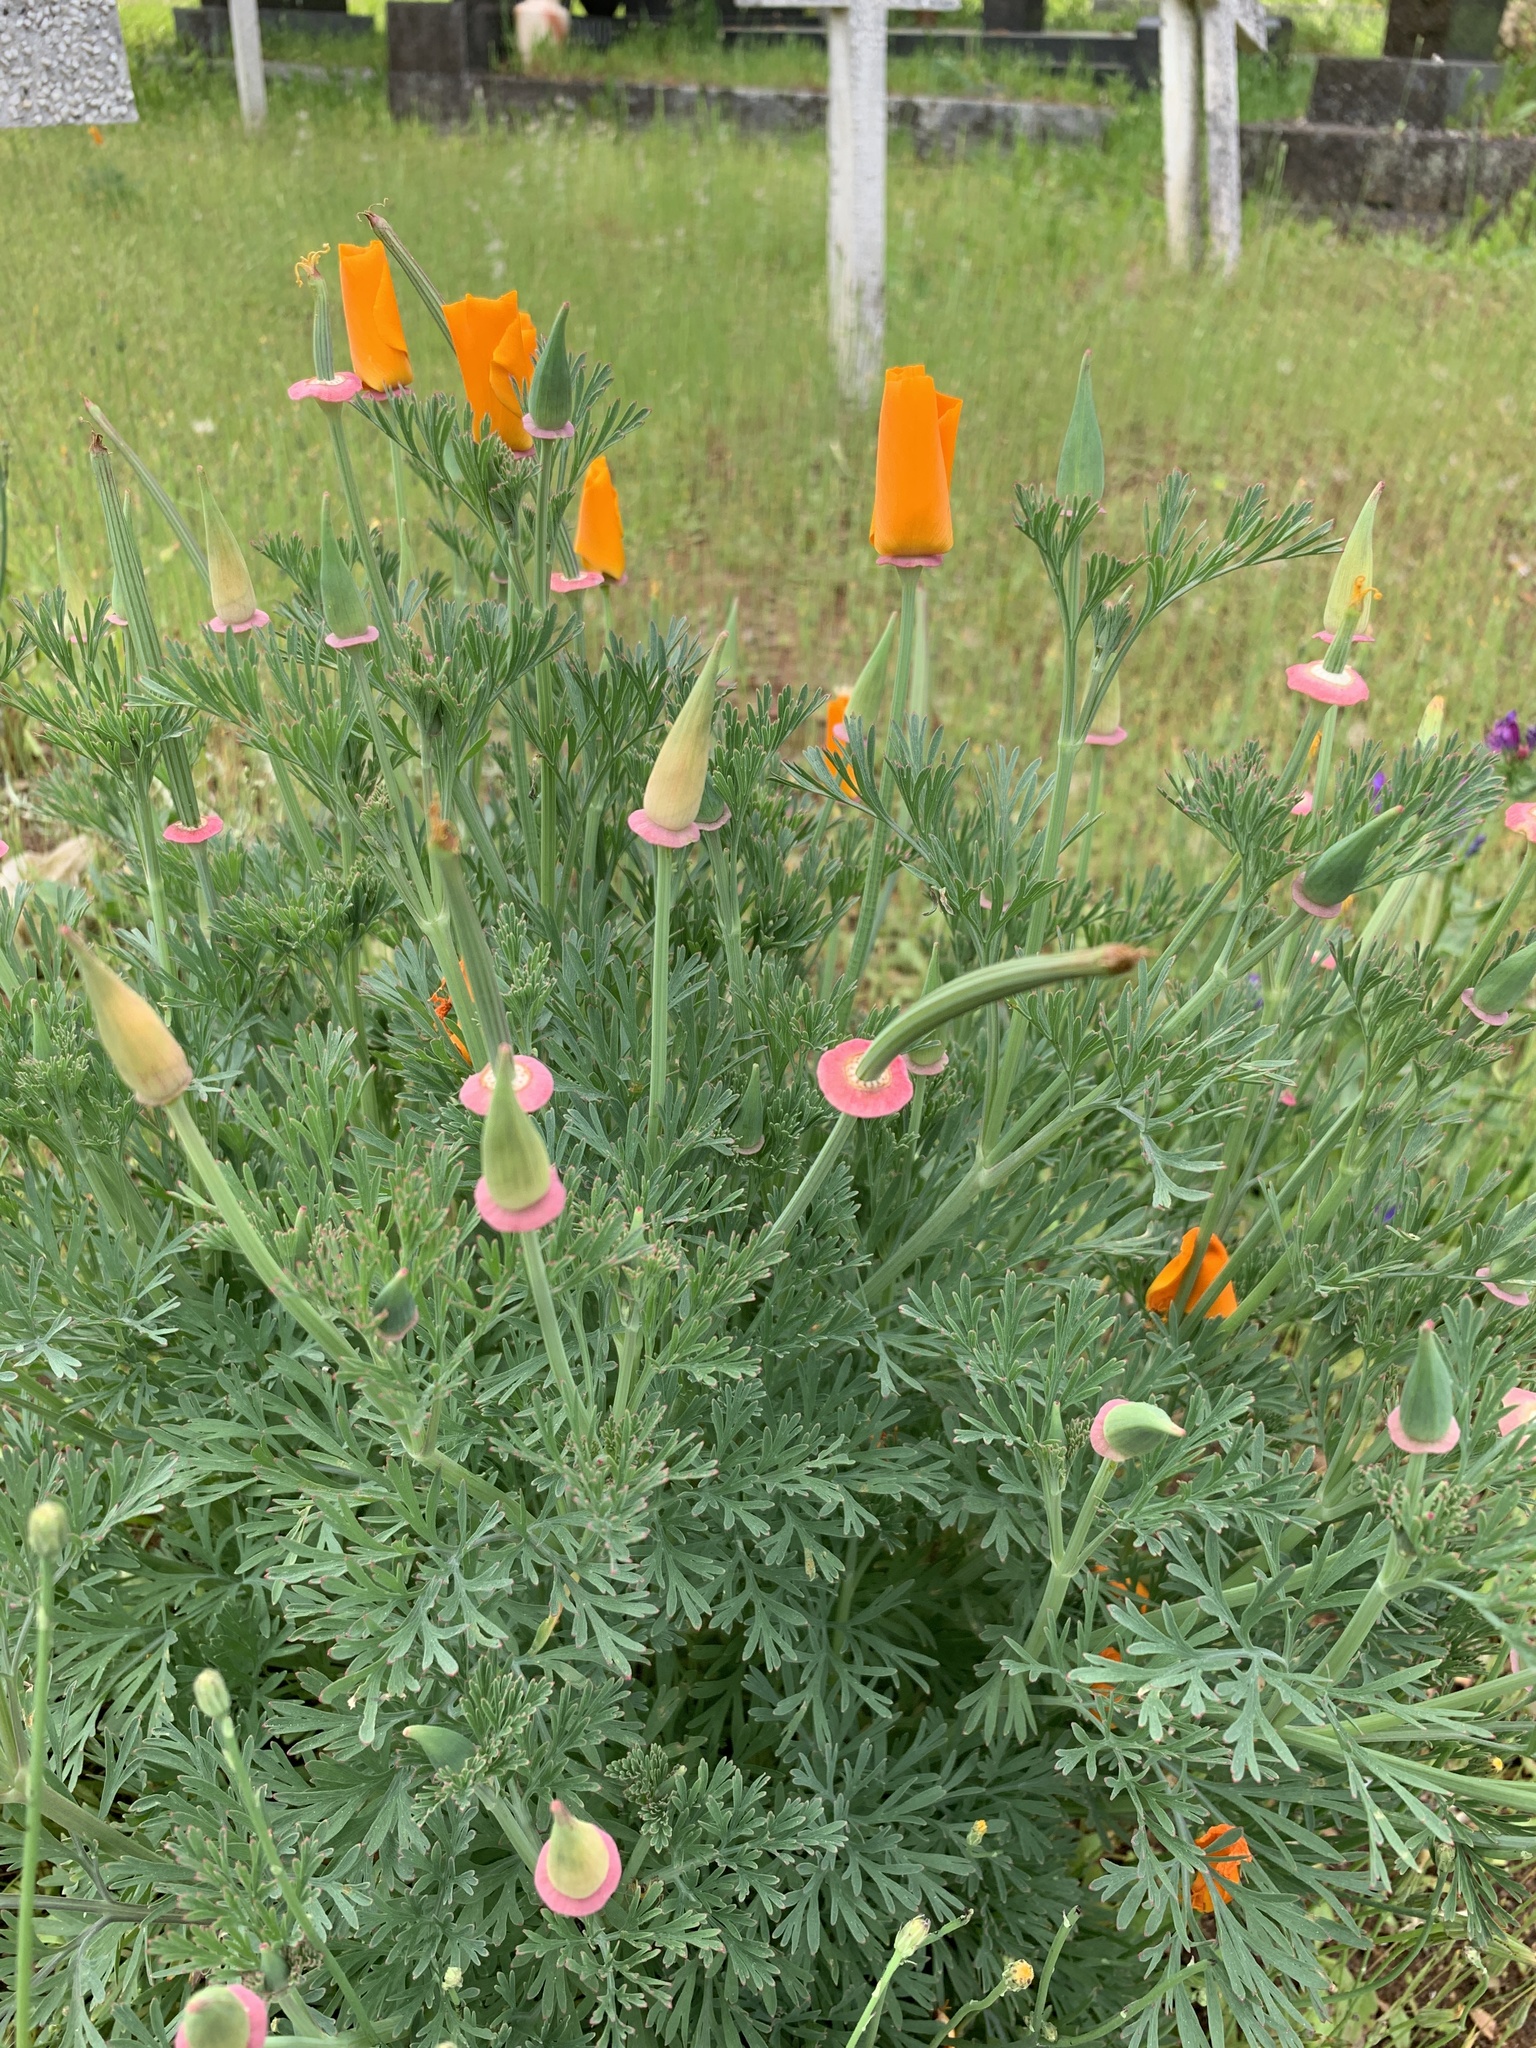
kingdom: Plantae
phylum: Tracheophyta
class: Magnoliopsida
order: Ranunculales
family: Papaveraceae
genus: Eschscholzia
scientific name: Eschscholzia californica
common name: California poppy
